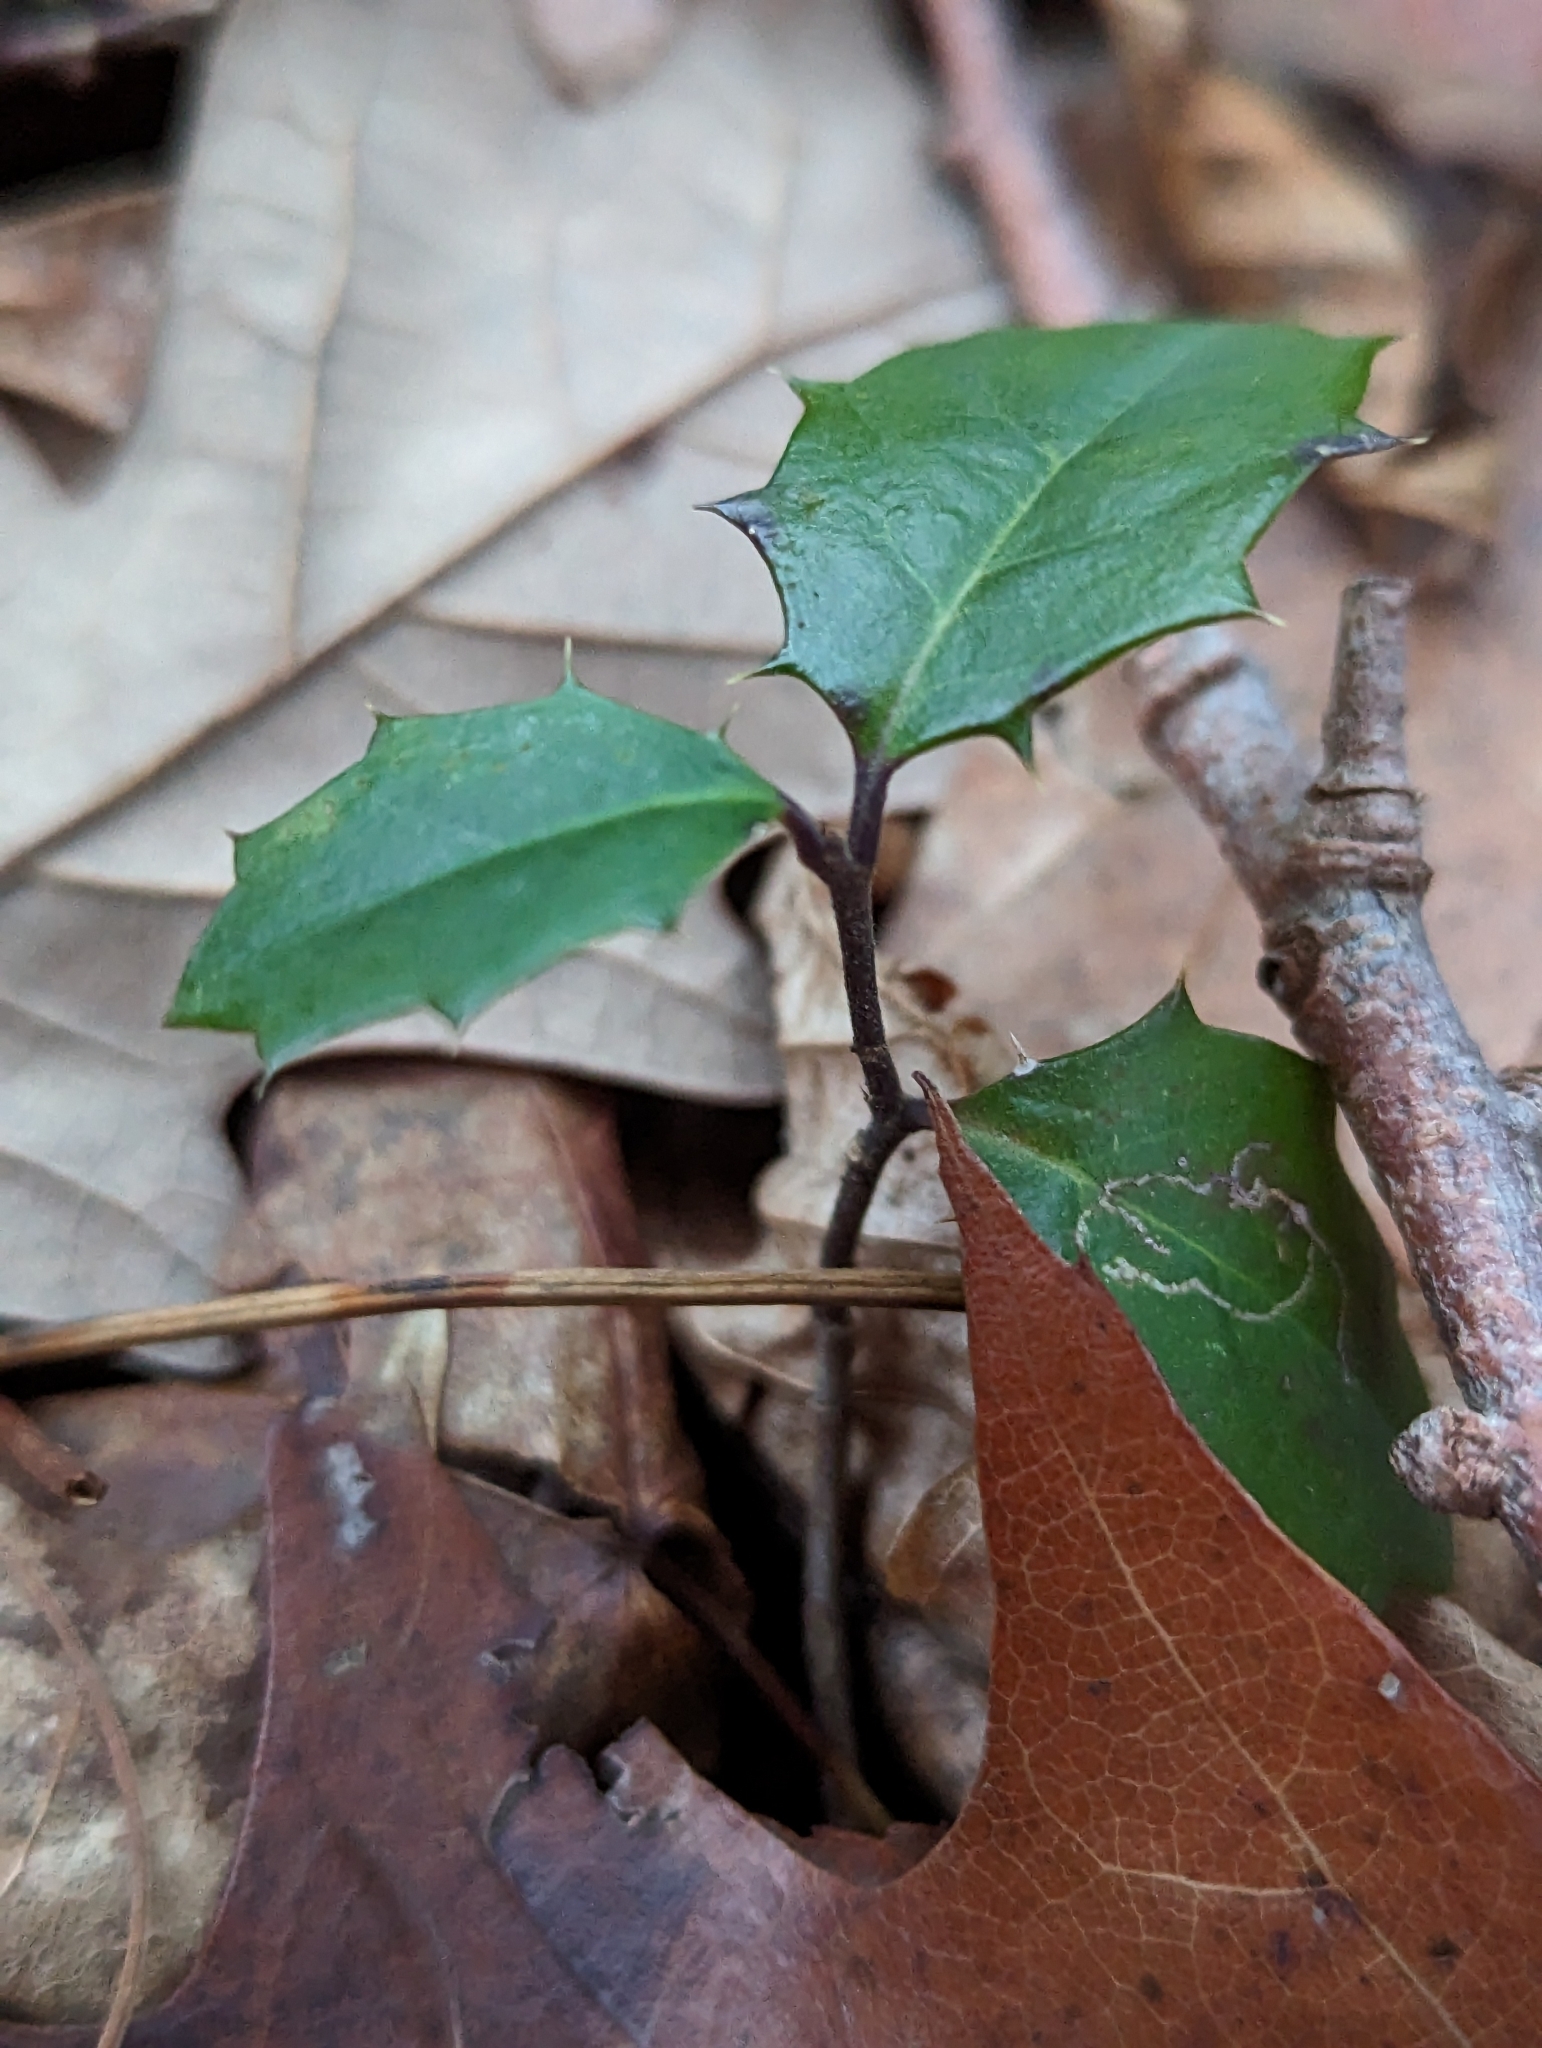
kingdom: Plantae
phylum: Tracheophyta
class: Magnoliopsida
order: Aquifoliales
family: Aquifoliaceae
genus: Ilex
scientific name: Ilex opaca
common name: American holly
